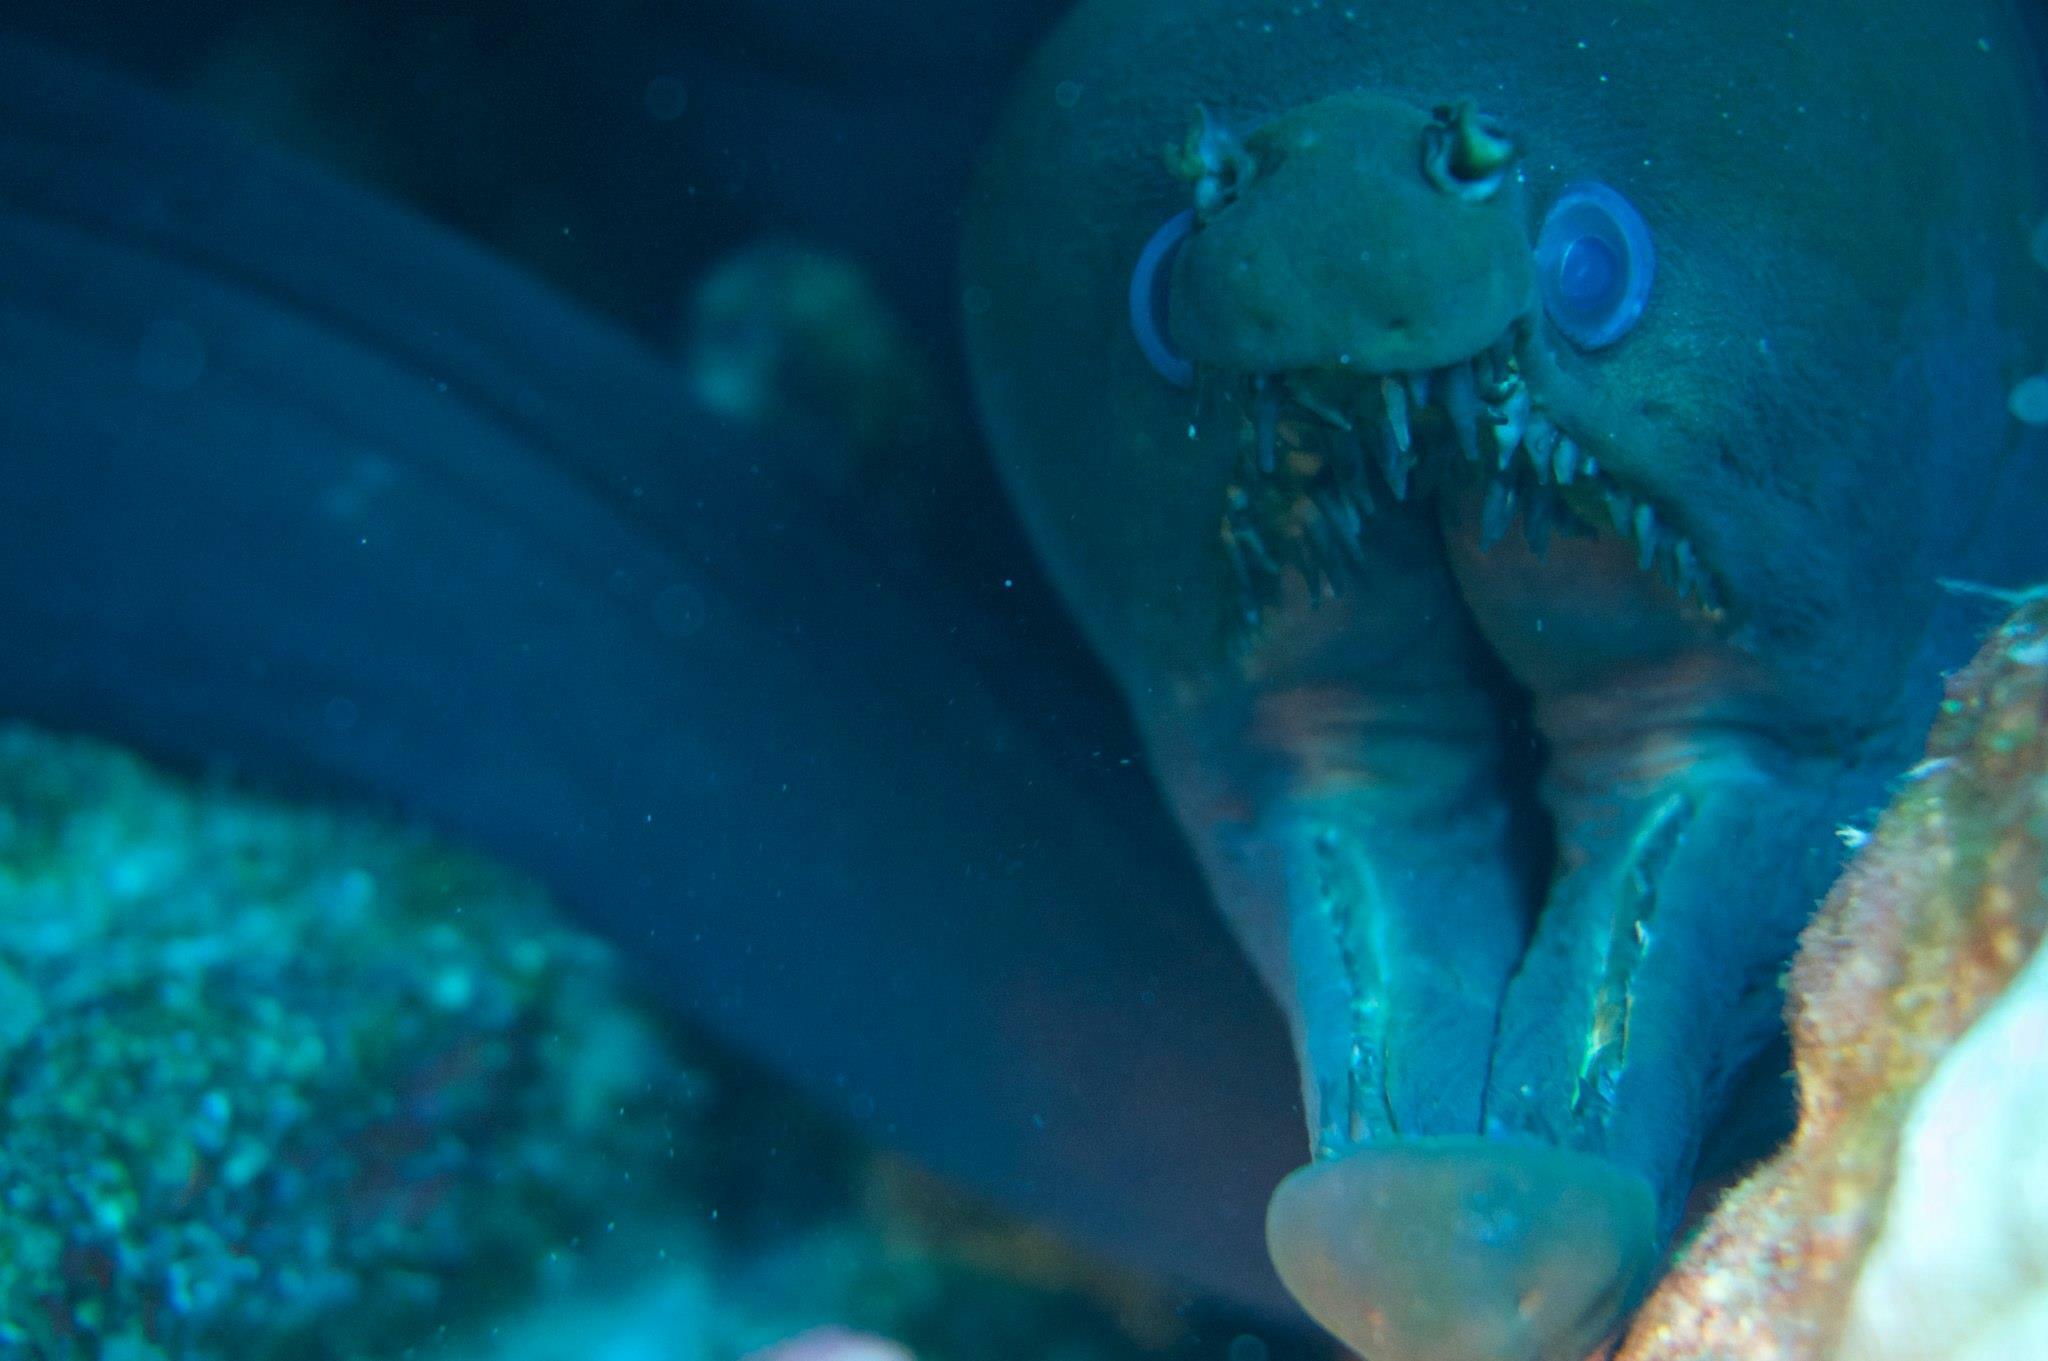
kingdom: Animalia
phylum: Chordata
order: Anguilliformes
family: Muraenidae
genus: Enchelynassa
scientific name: Enchelynassa canina
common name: Viper moray
